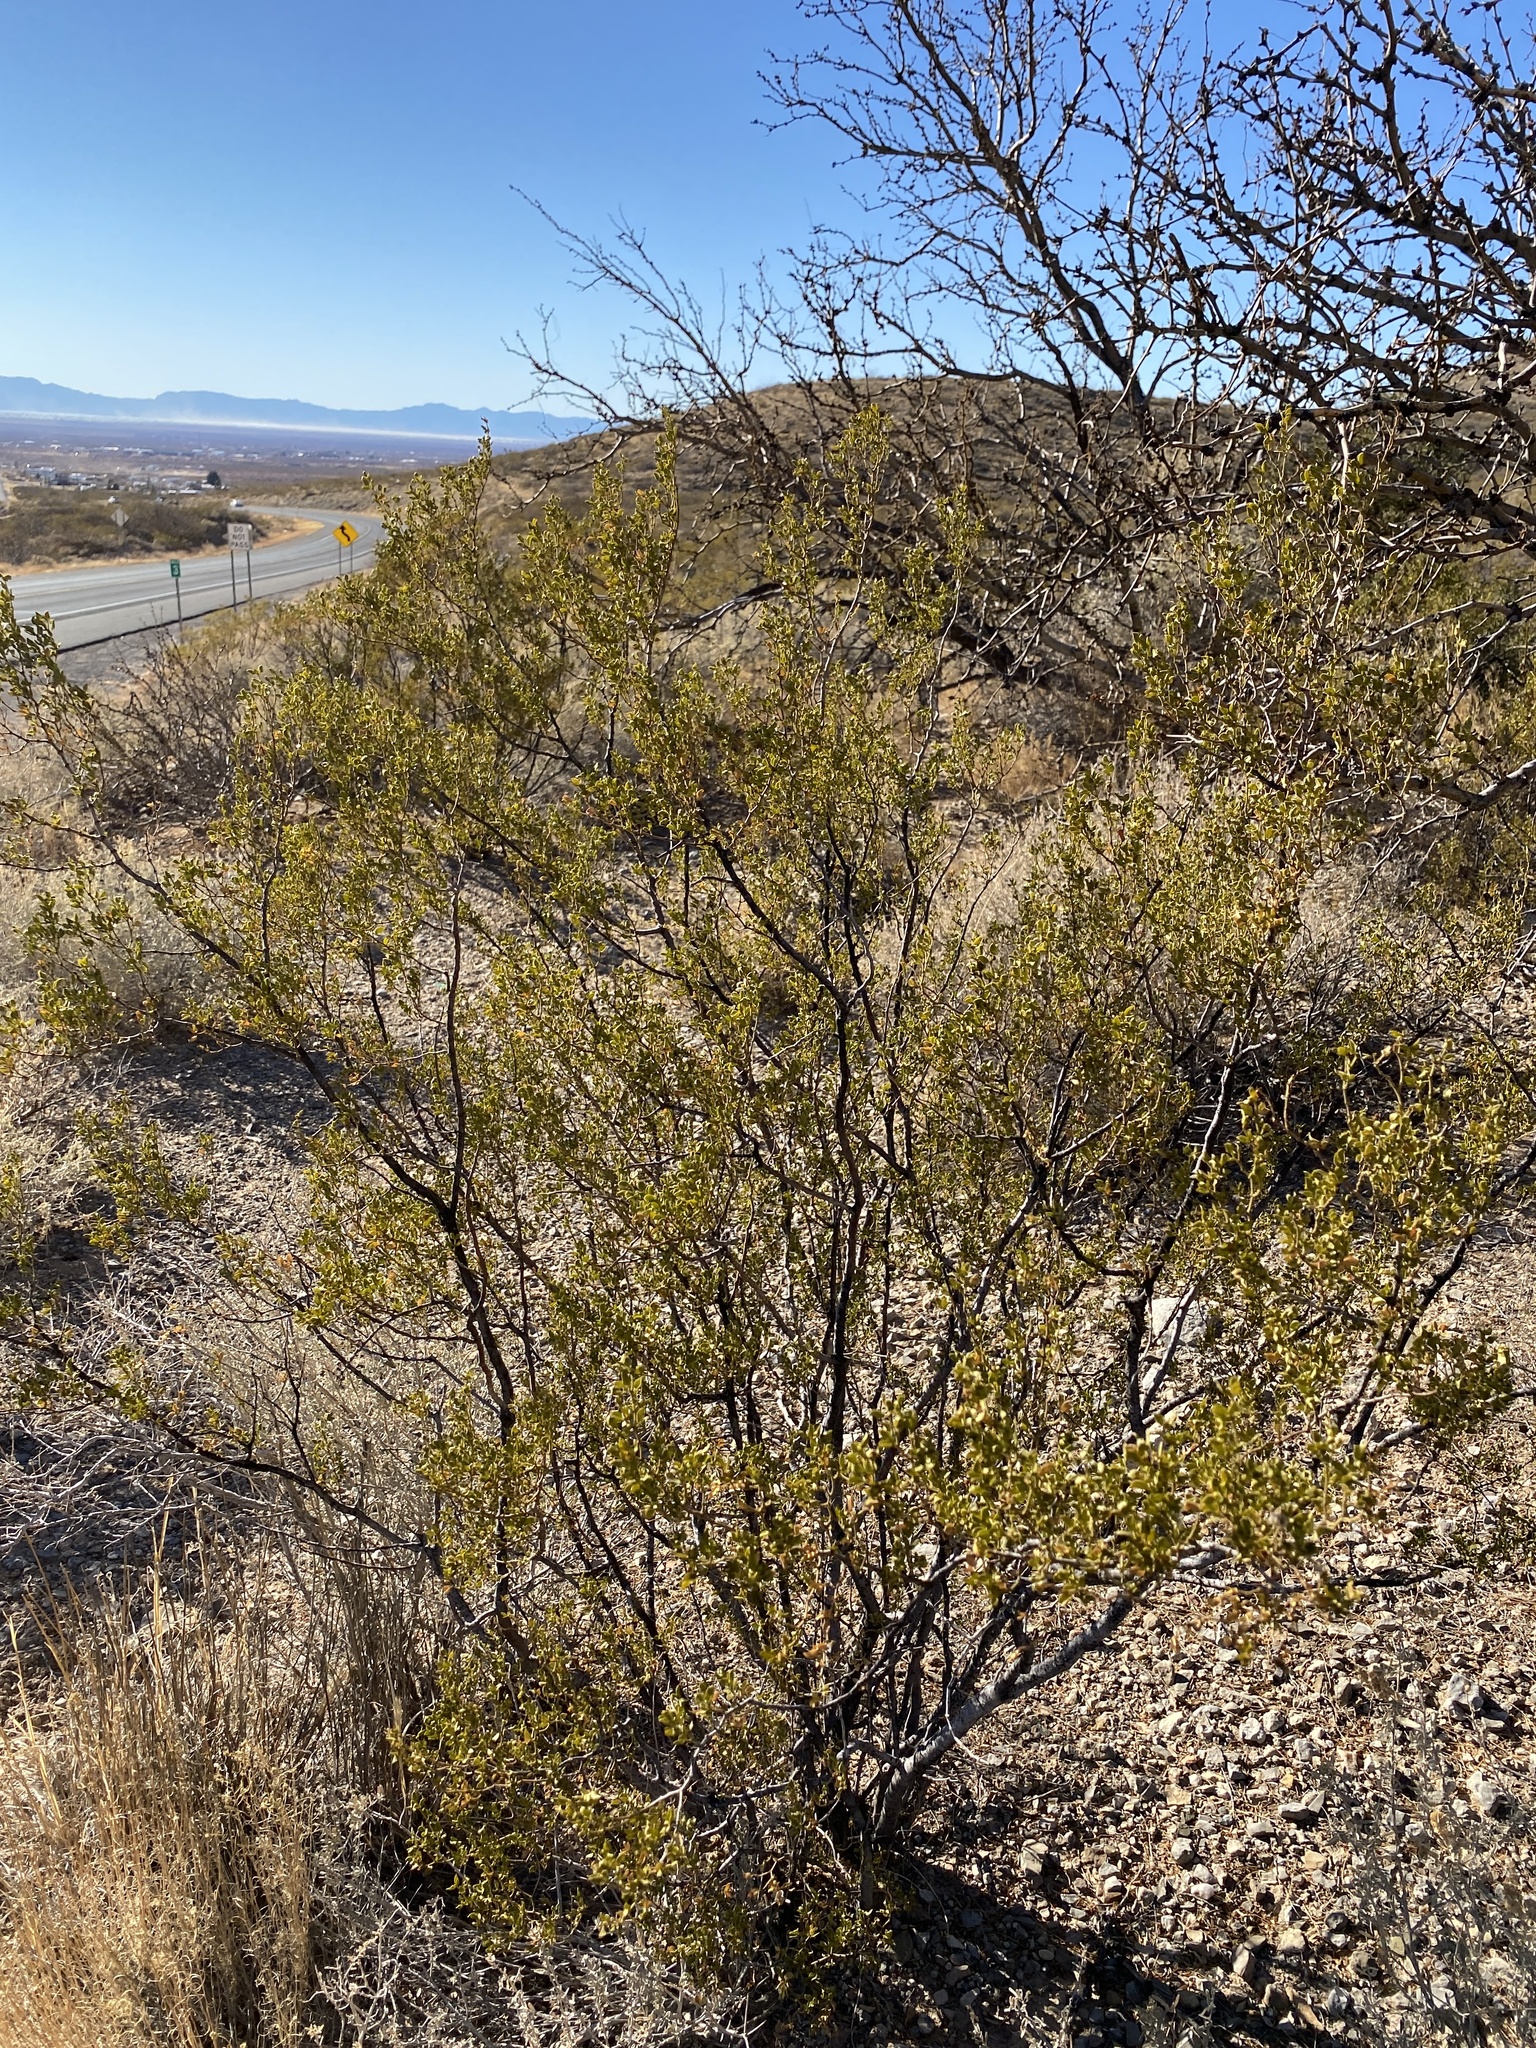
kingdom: Plantae
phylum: Tracheophyta
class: Magnoliopsida
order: Zygophyllales
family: Zygophyllaceae
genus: Larrea
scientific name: Larrea tridentata
